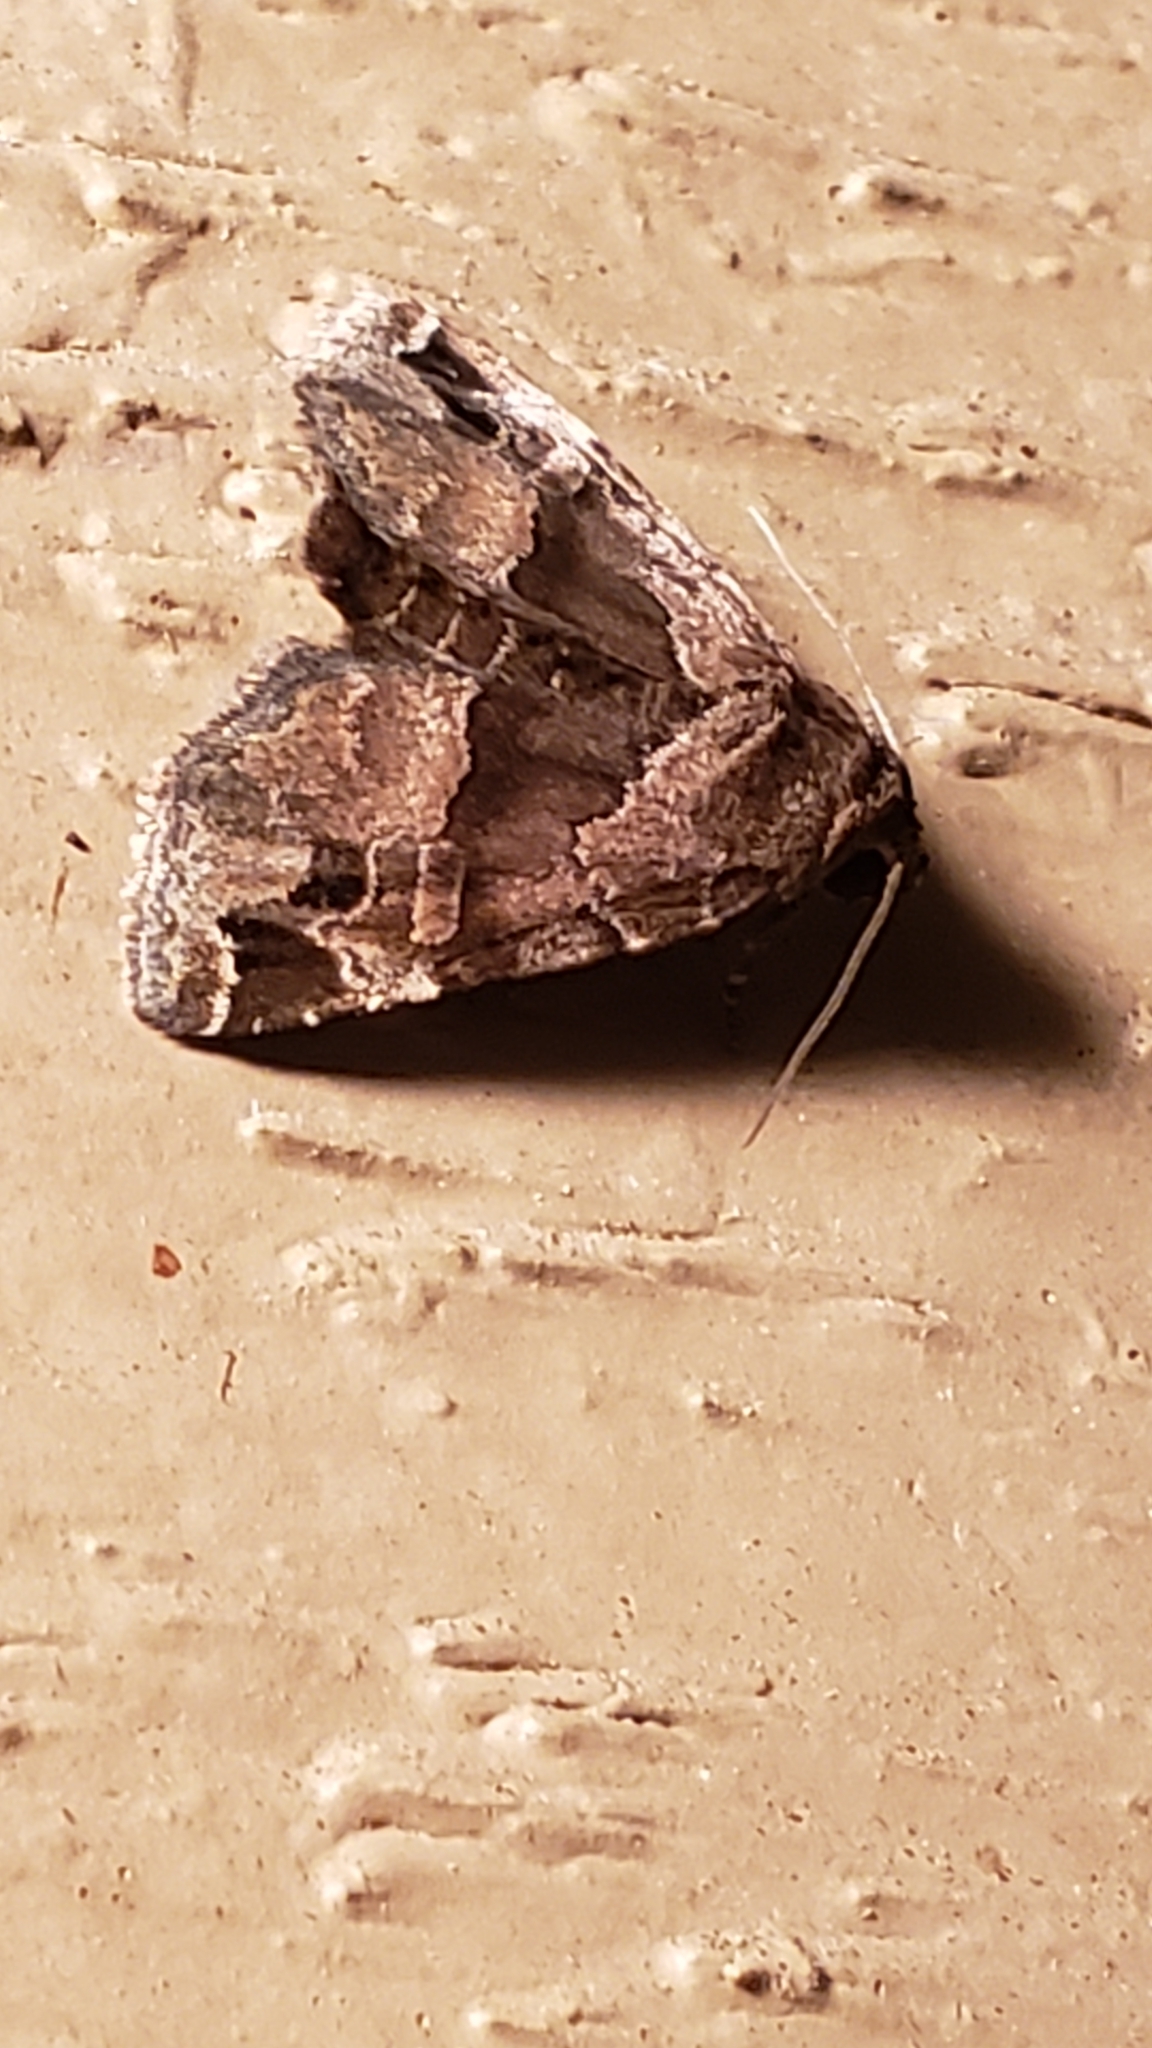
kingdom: Animalia
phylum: Arthropoda
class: Insecta
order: Lepidoptera
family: Noctuidae
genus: Niphonyx
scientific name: Niphonyx segregata
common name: Hops angleshade moth
